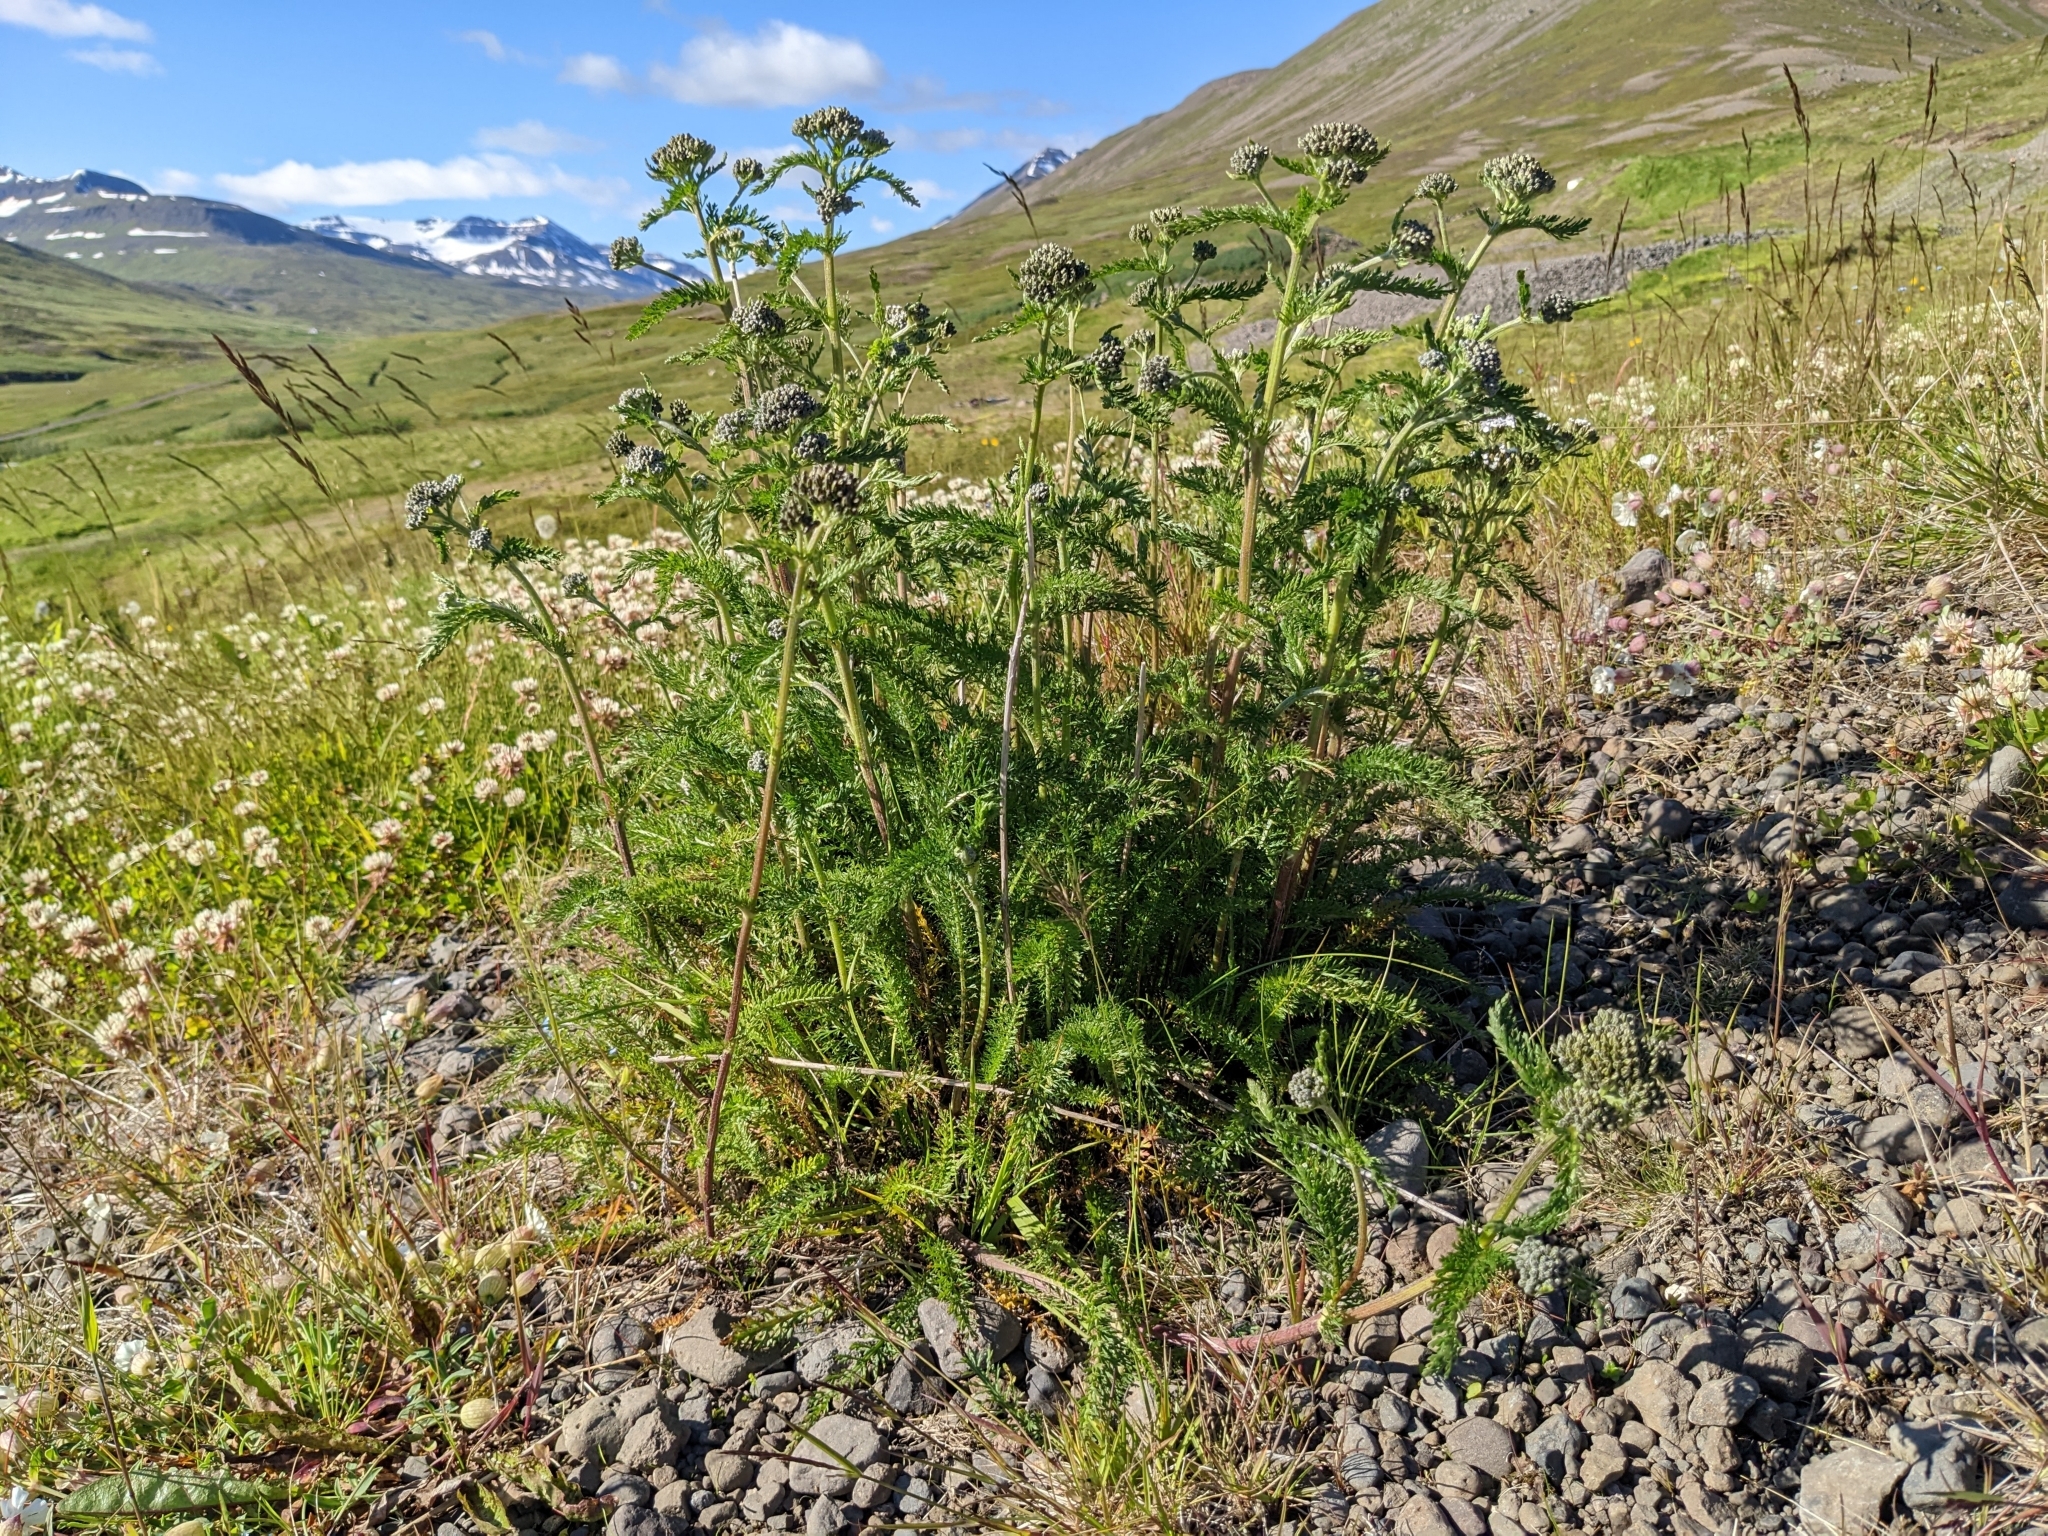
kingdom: Plantae
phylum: Tracheophyta
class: Magnoliopsida
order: Asterales
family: Asteraceae
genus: Achillea
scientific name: Achillea millefolium
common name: Yarrow
